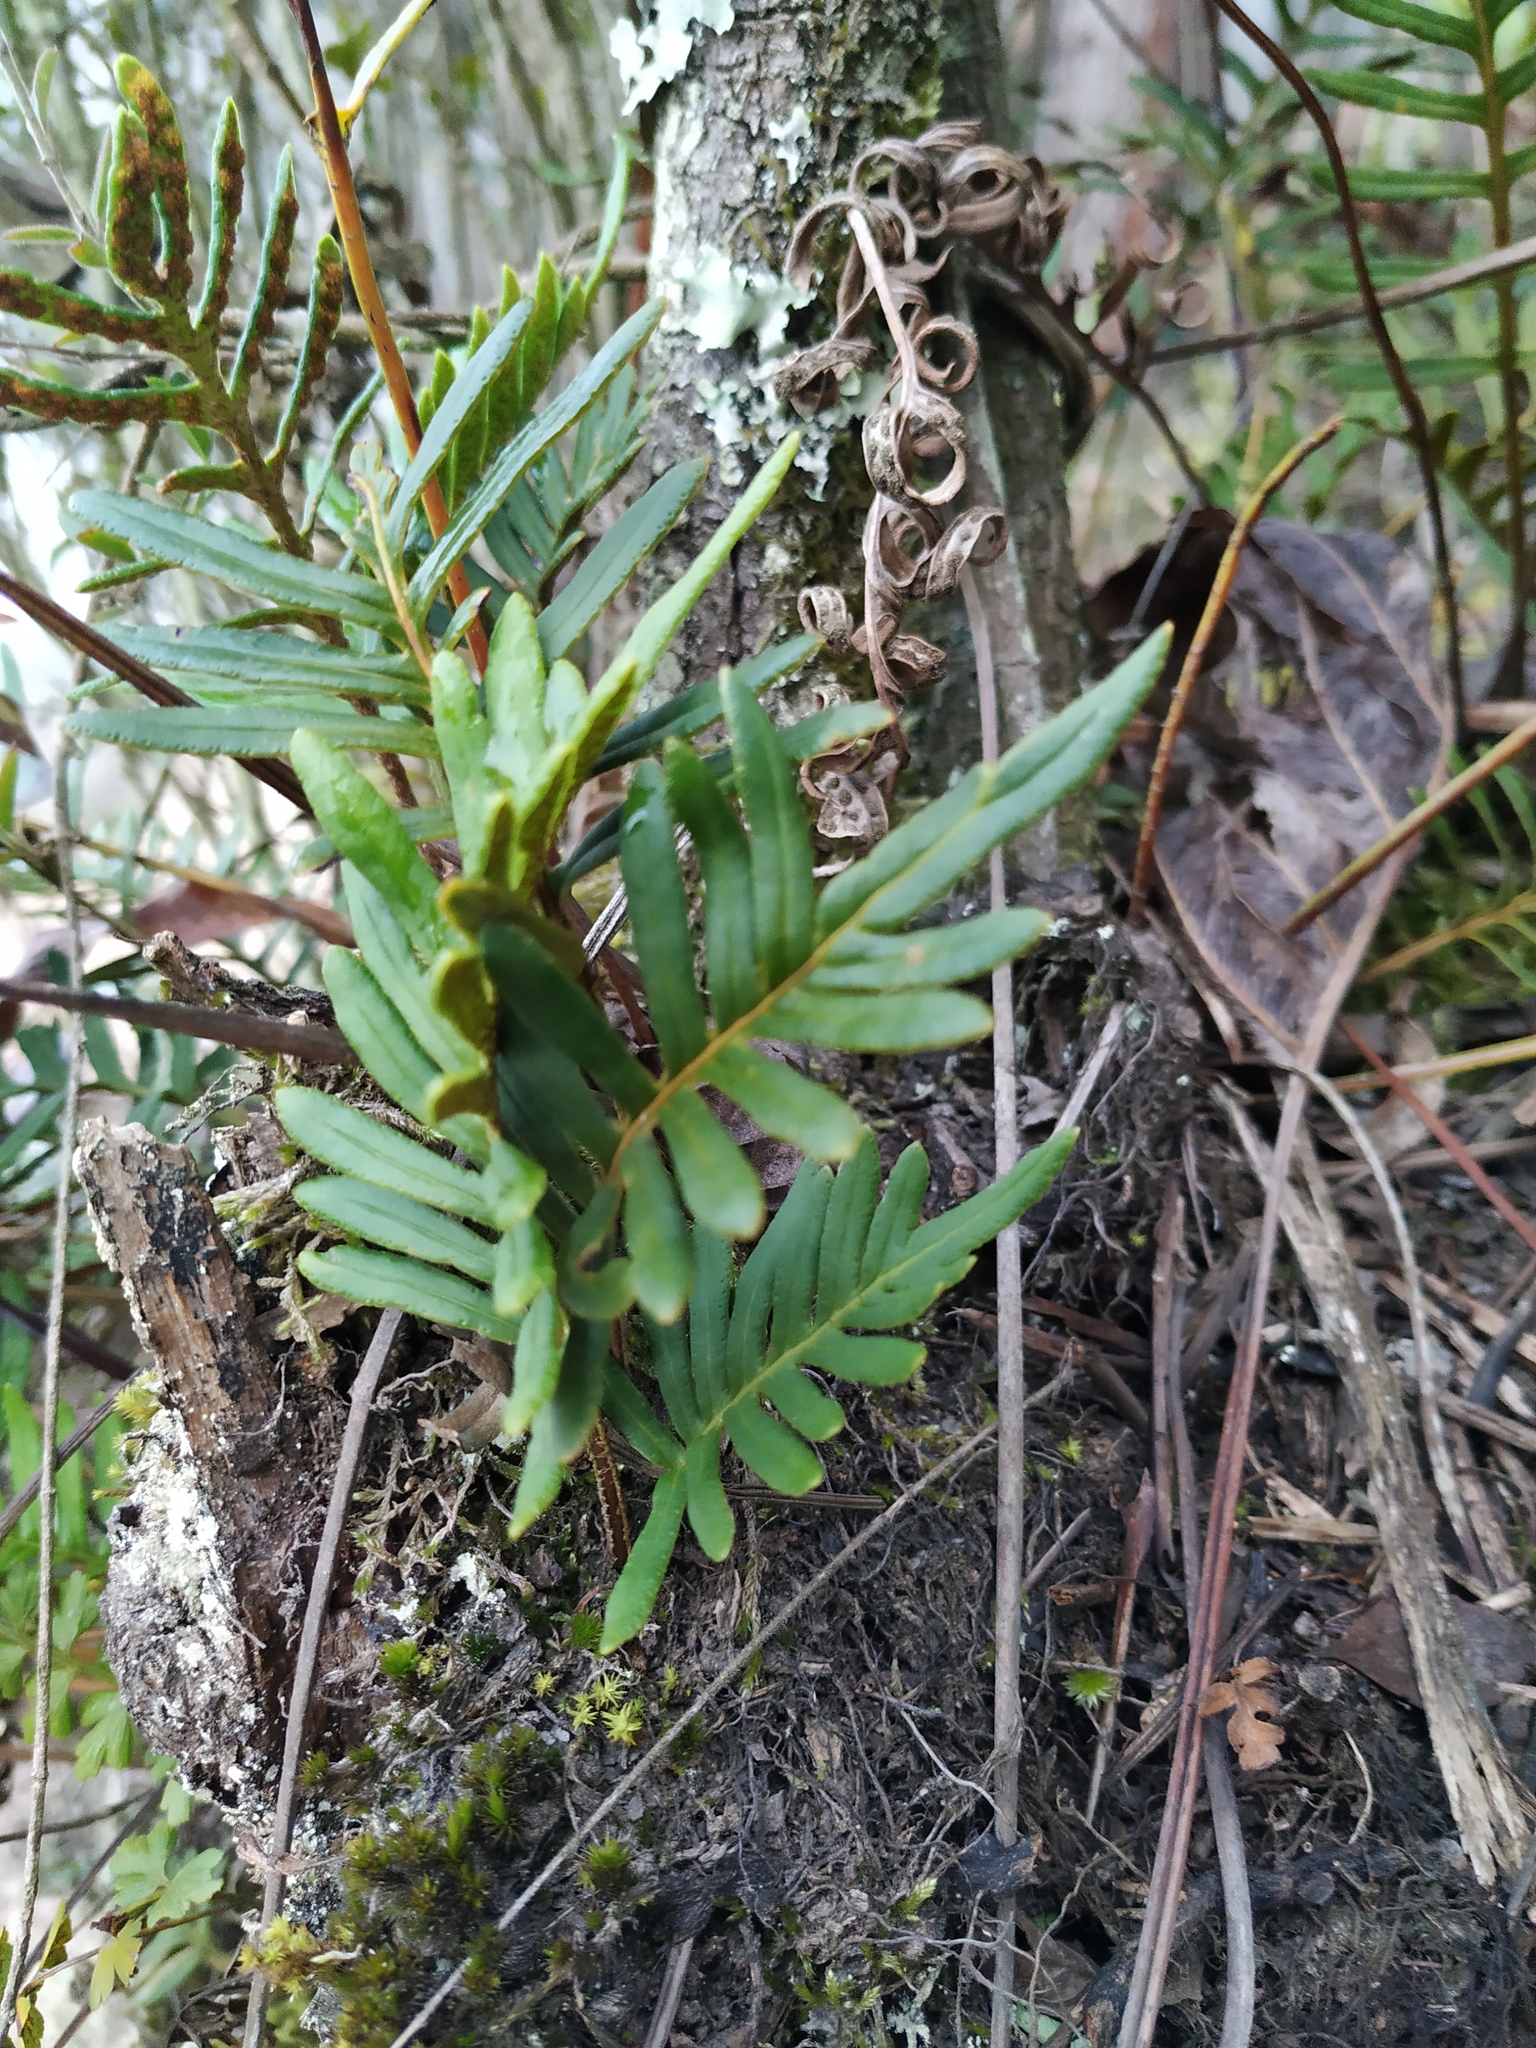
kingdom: Plantae
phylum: Tracheophyta
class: Polypodiopsida
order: Polypodiales
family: Polypodiaceae
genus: Pleopeltis
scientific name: Pleopeltis orientalis
